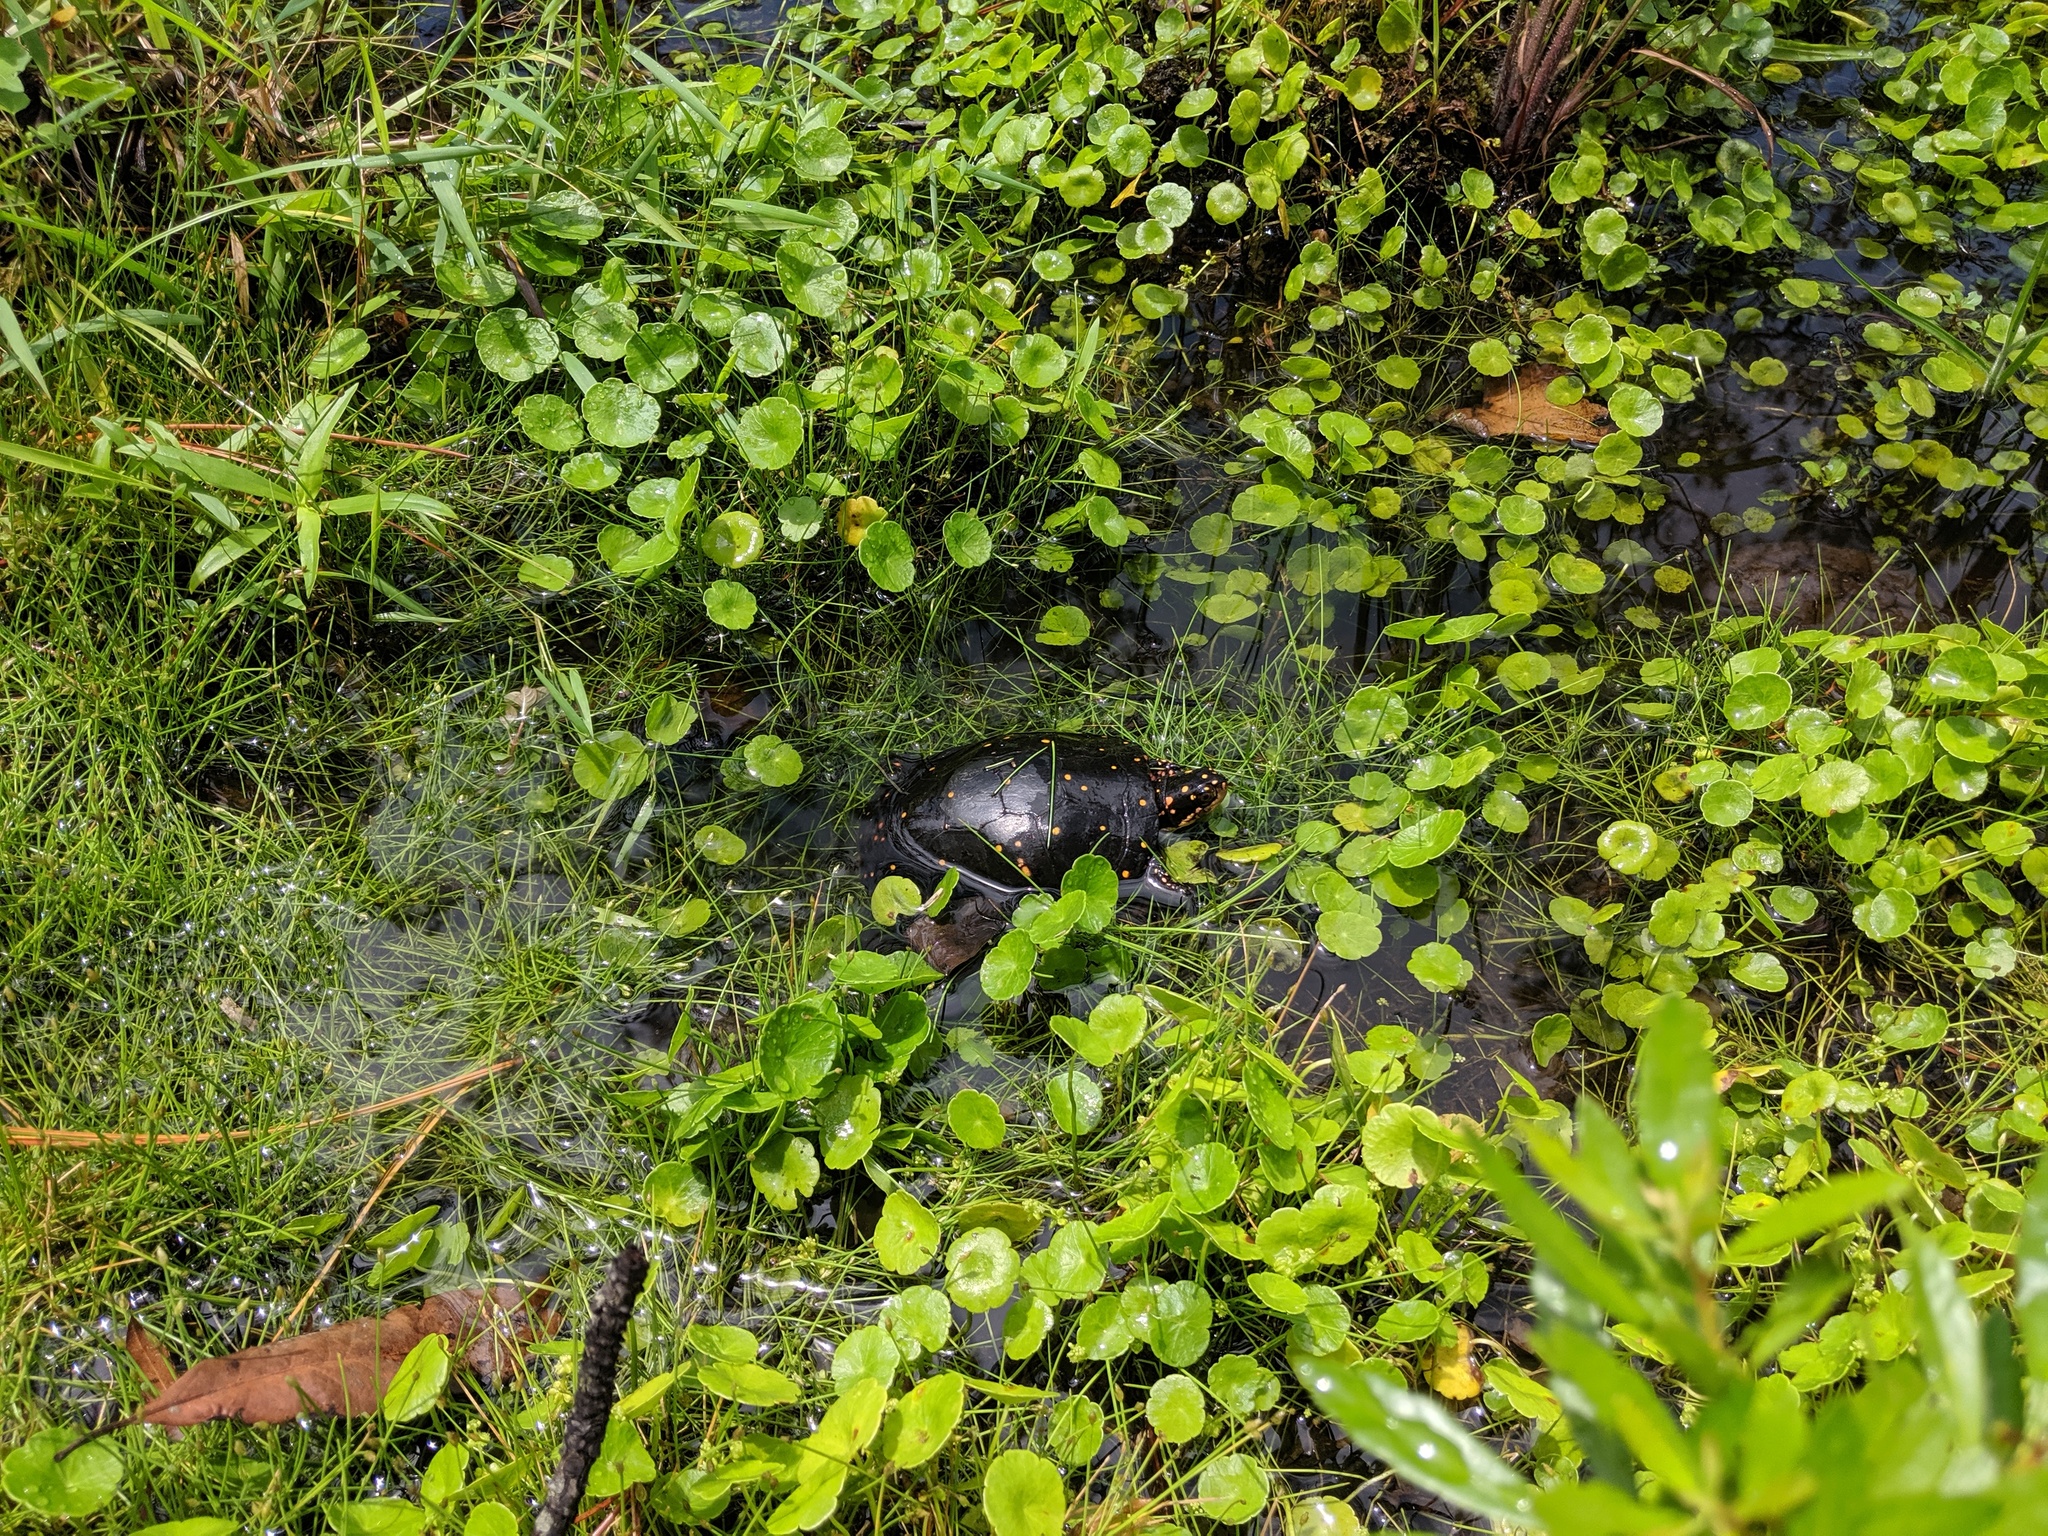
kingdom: Animalia
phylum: Chordata
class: Testudines
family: Emydidae
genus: Clemmys
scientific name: Clemmys guttata
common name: Spotted turtle
